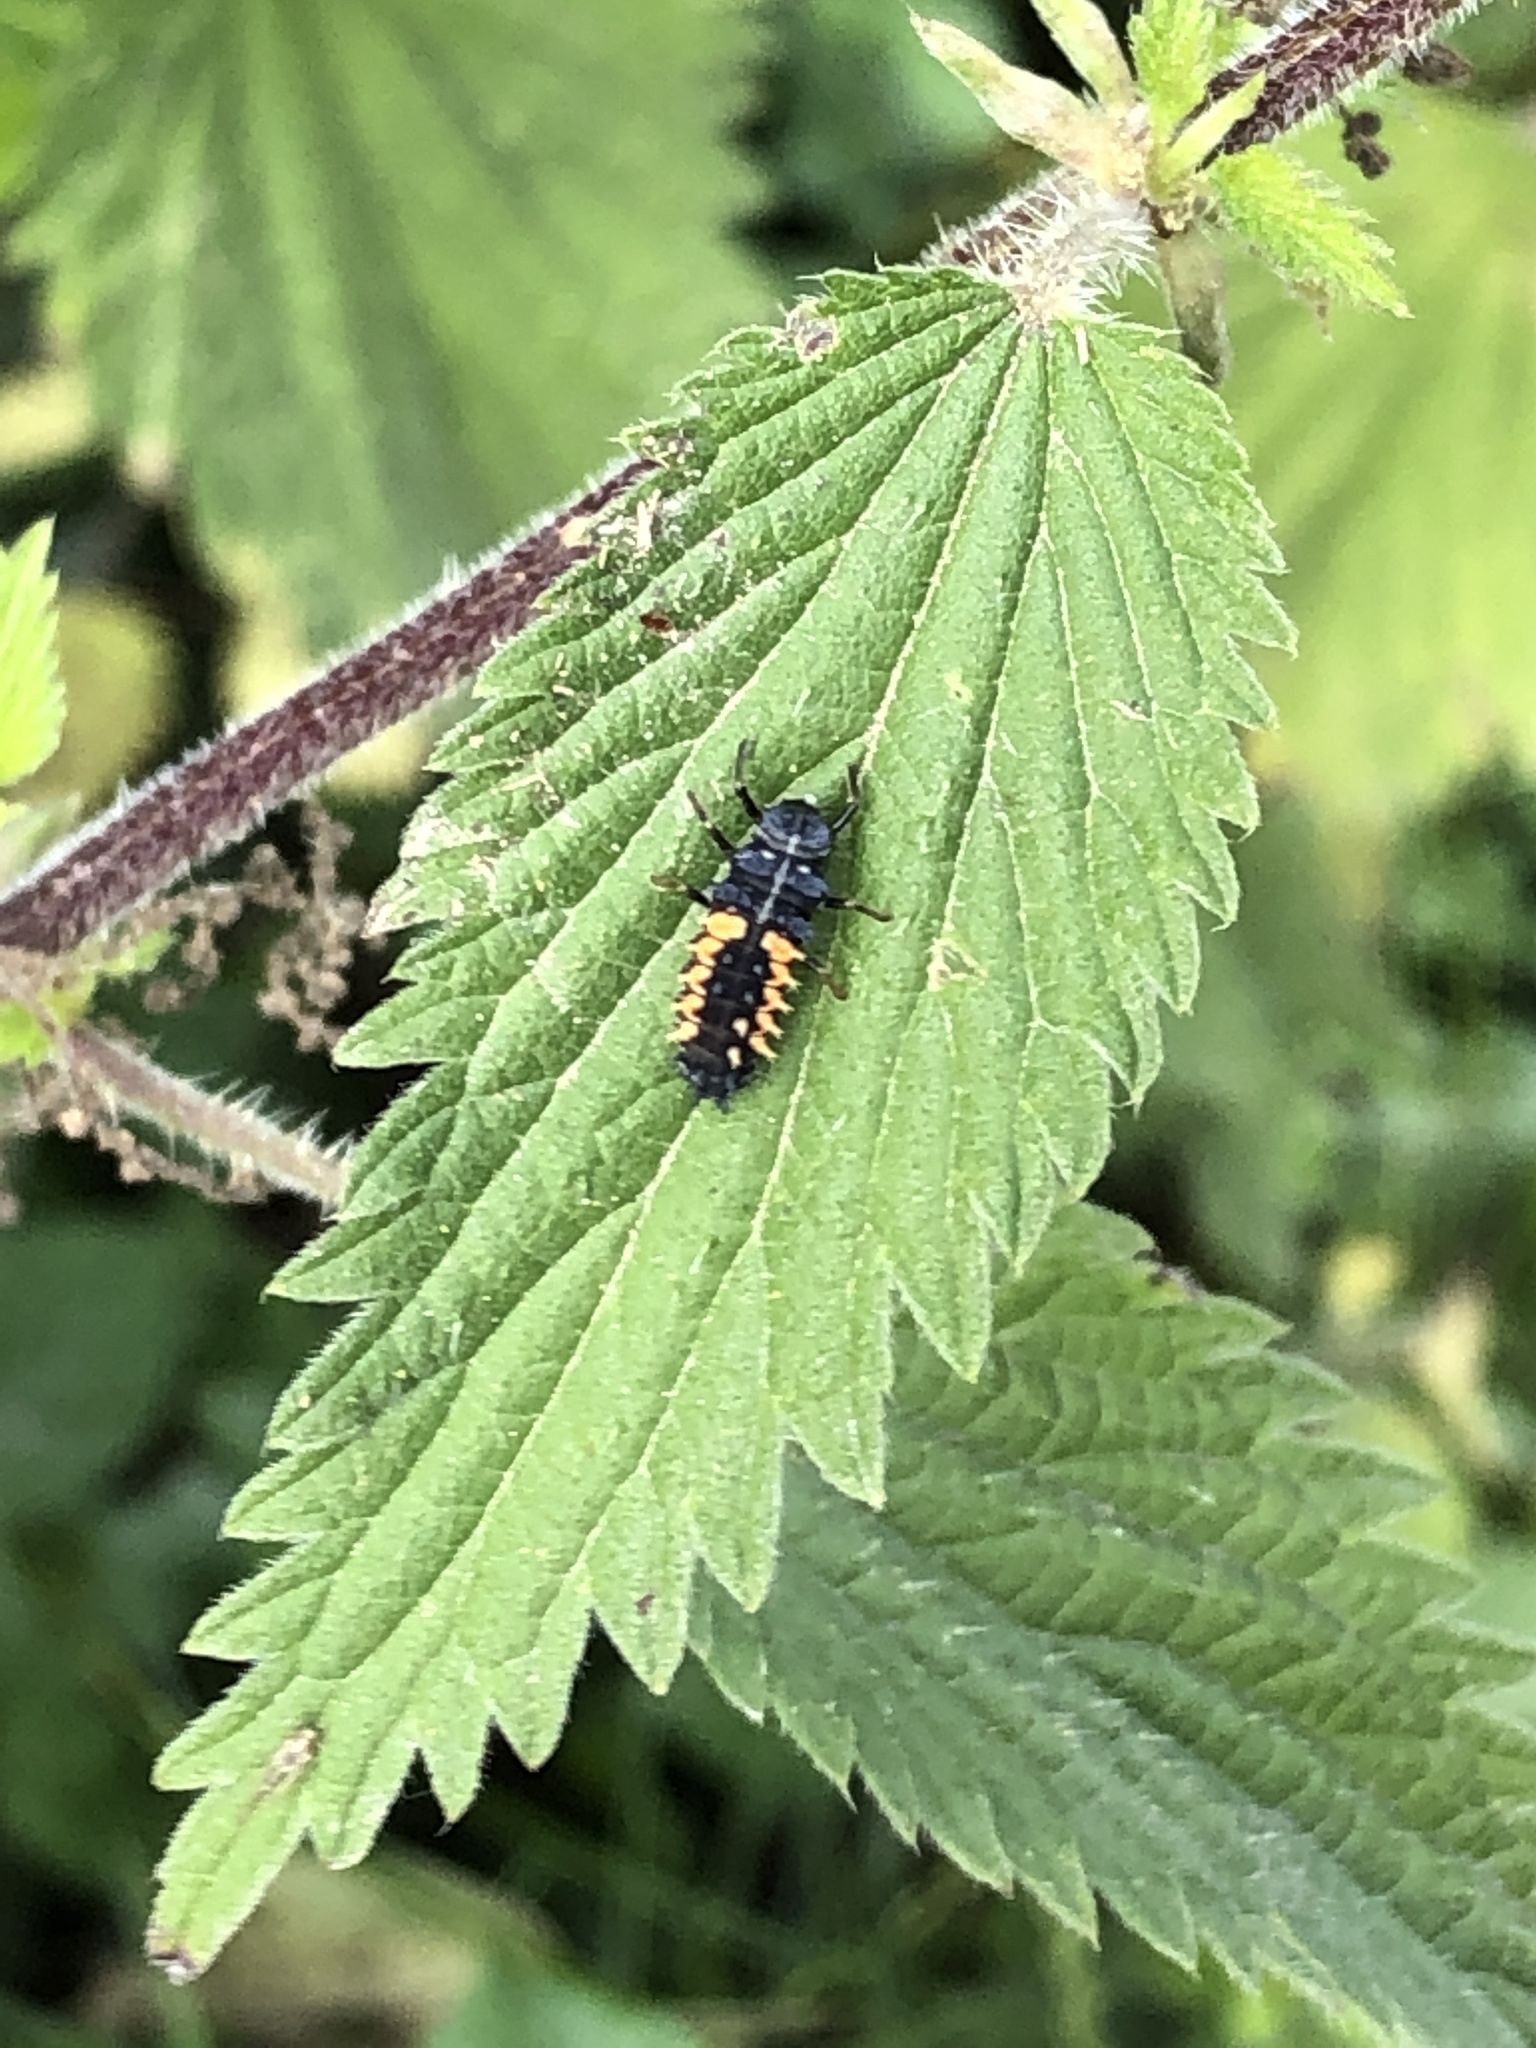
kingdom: Animalia
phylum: Arthropoda
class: Insecta
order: Coleoptera
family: Coccinellidae
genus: Harmonia
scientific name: Harmonia axyridis
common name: Harlequin ladybird
